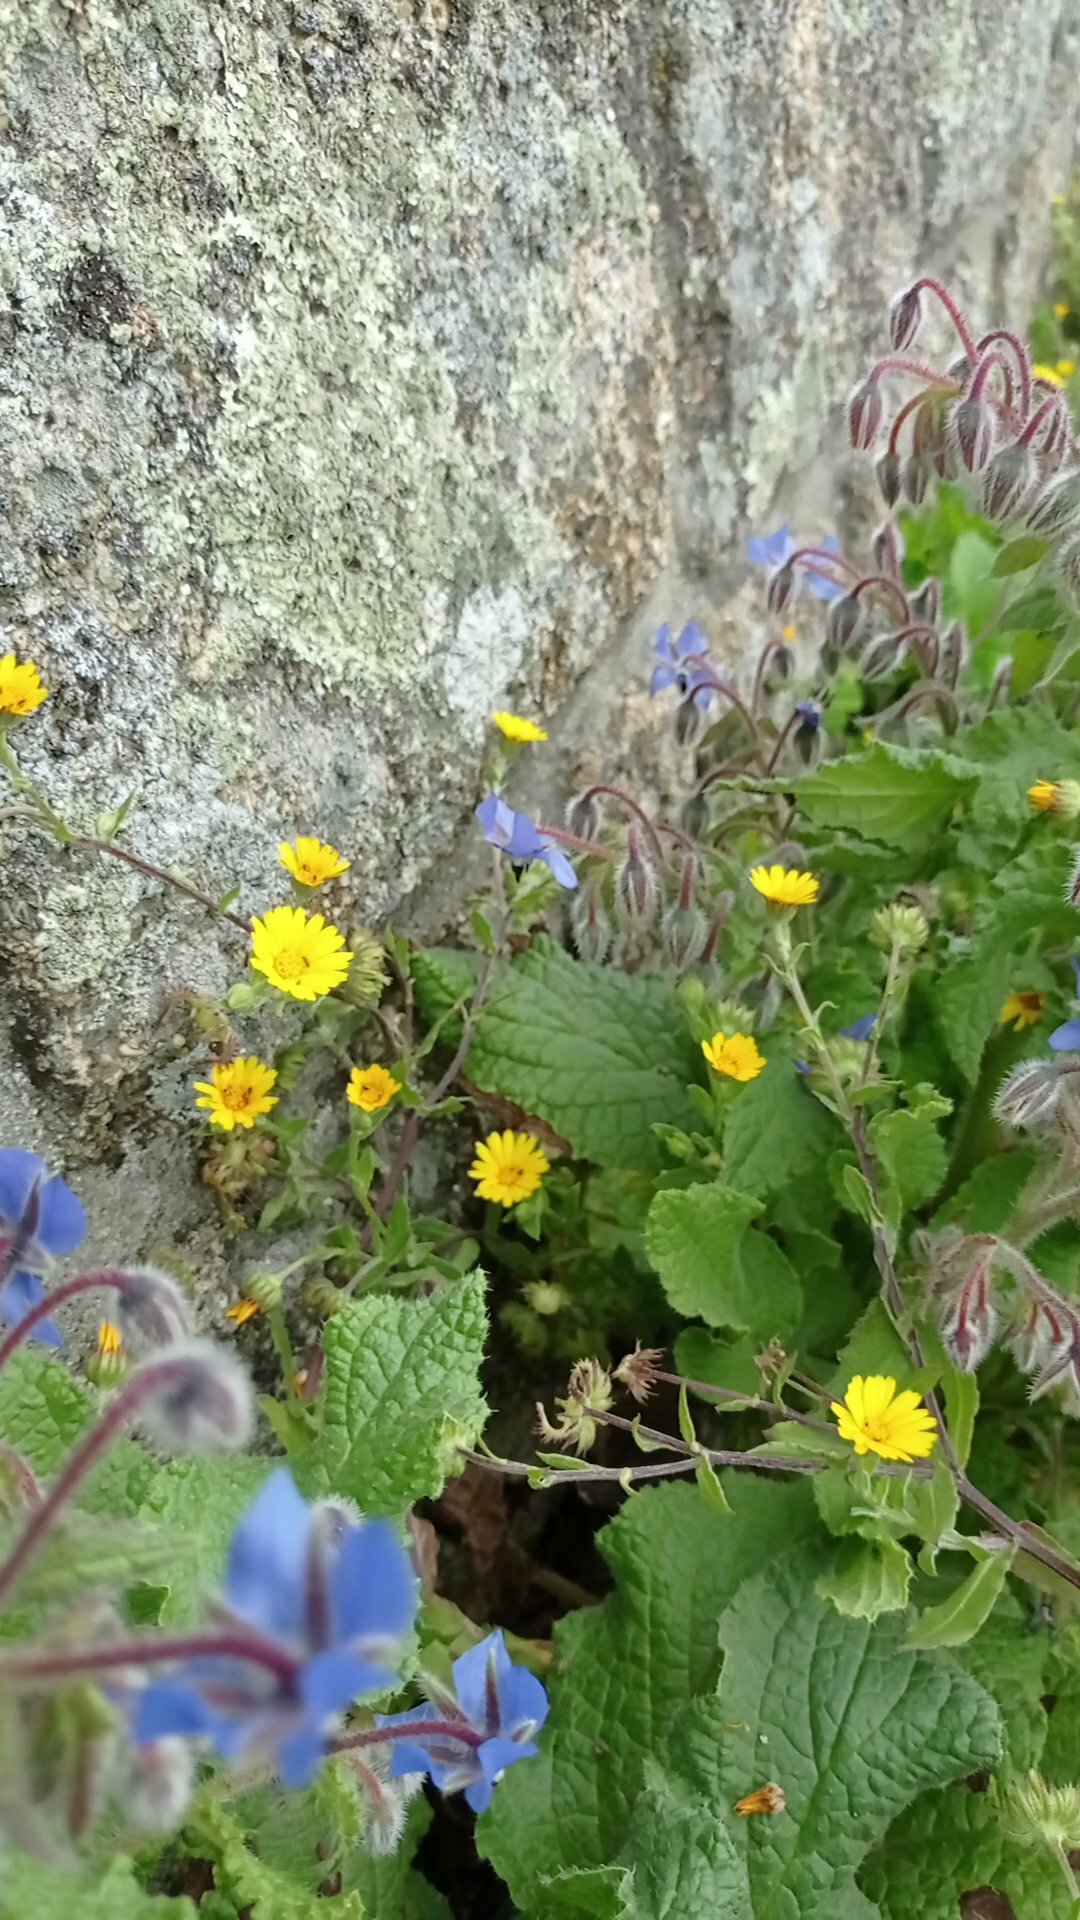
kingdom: Plantae
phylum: Tracheophyta
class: Magnoliopsida
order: Asterales
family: Asteraceae
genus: Calendula
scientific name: Calendula arvensis
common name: Field marigold
